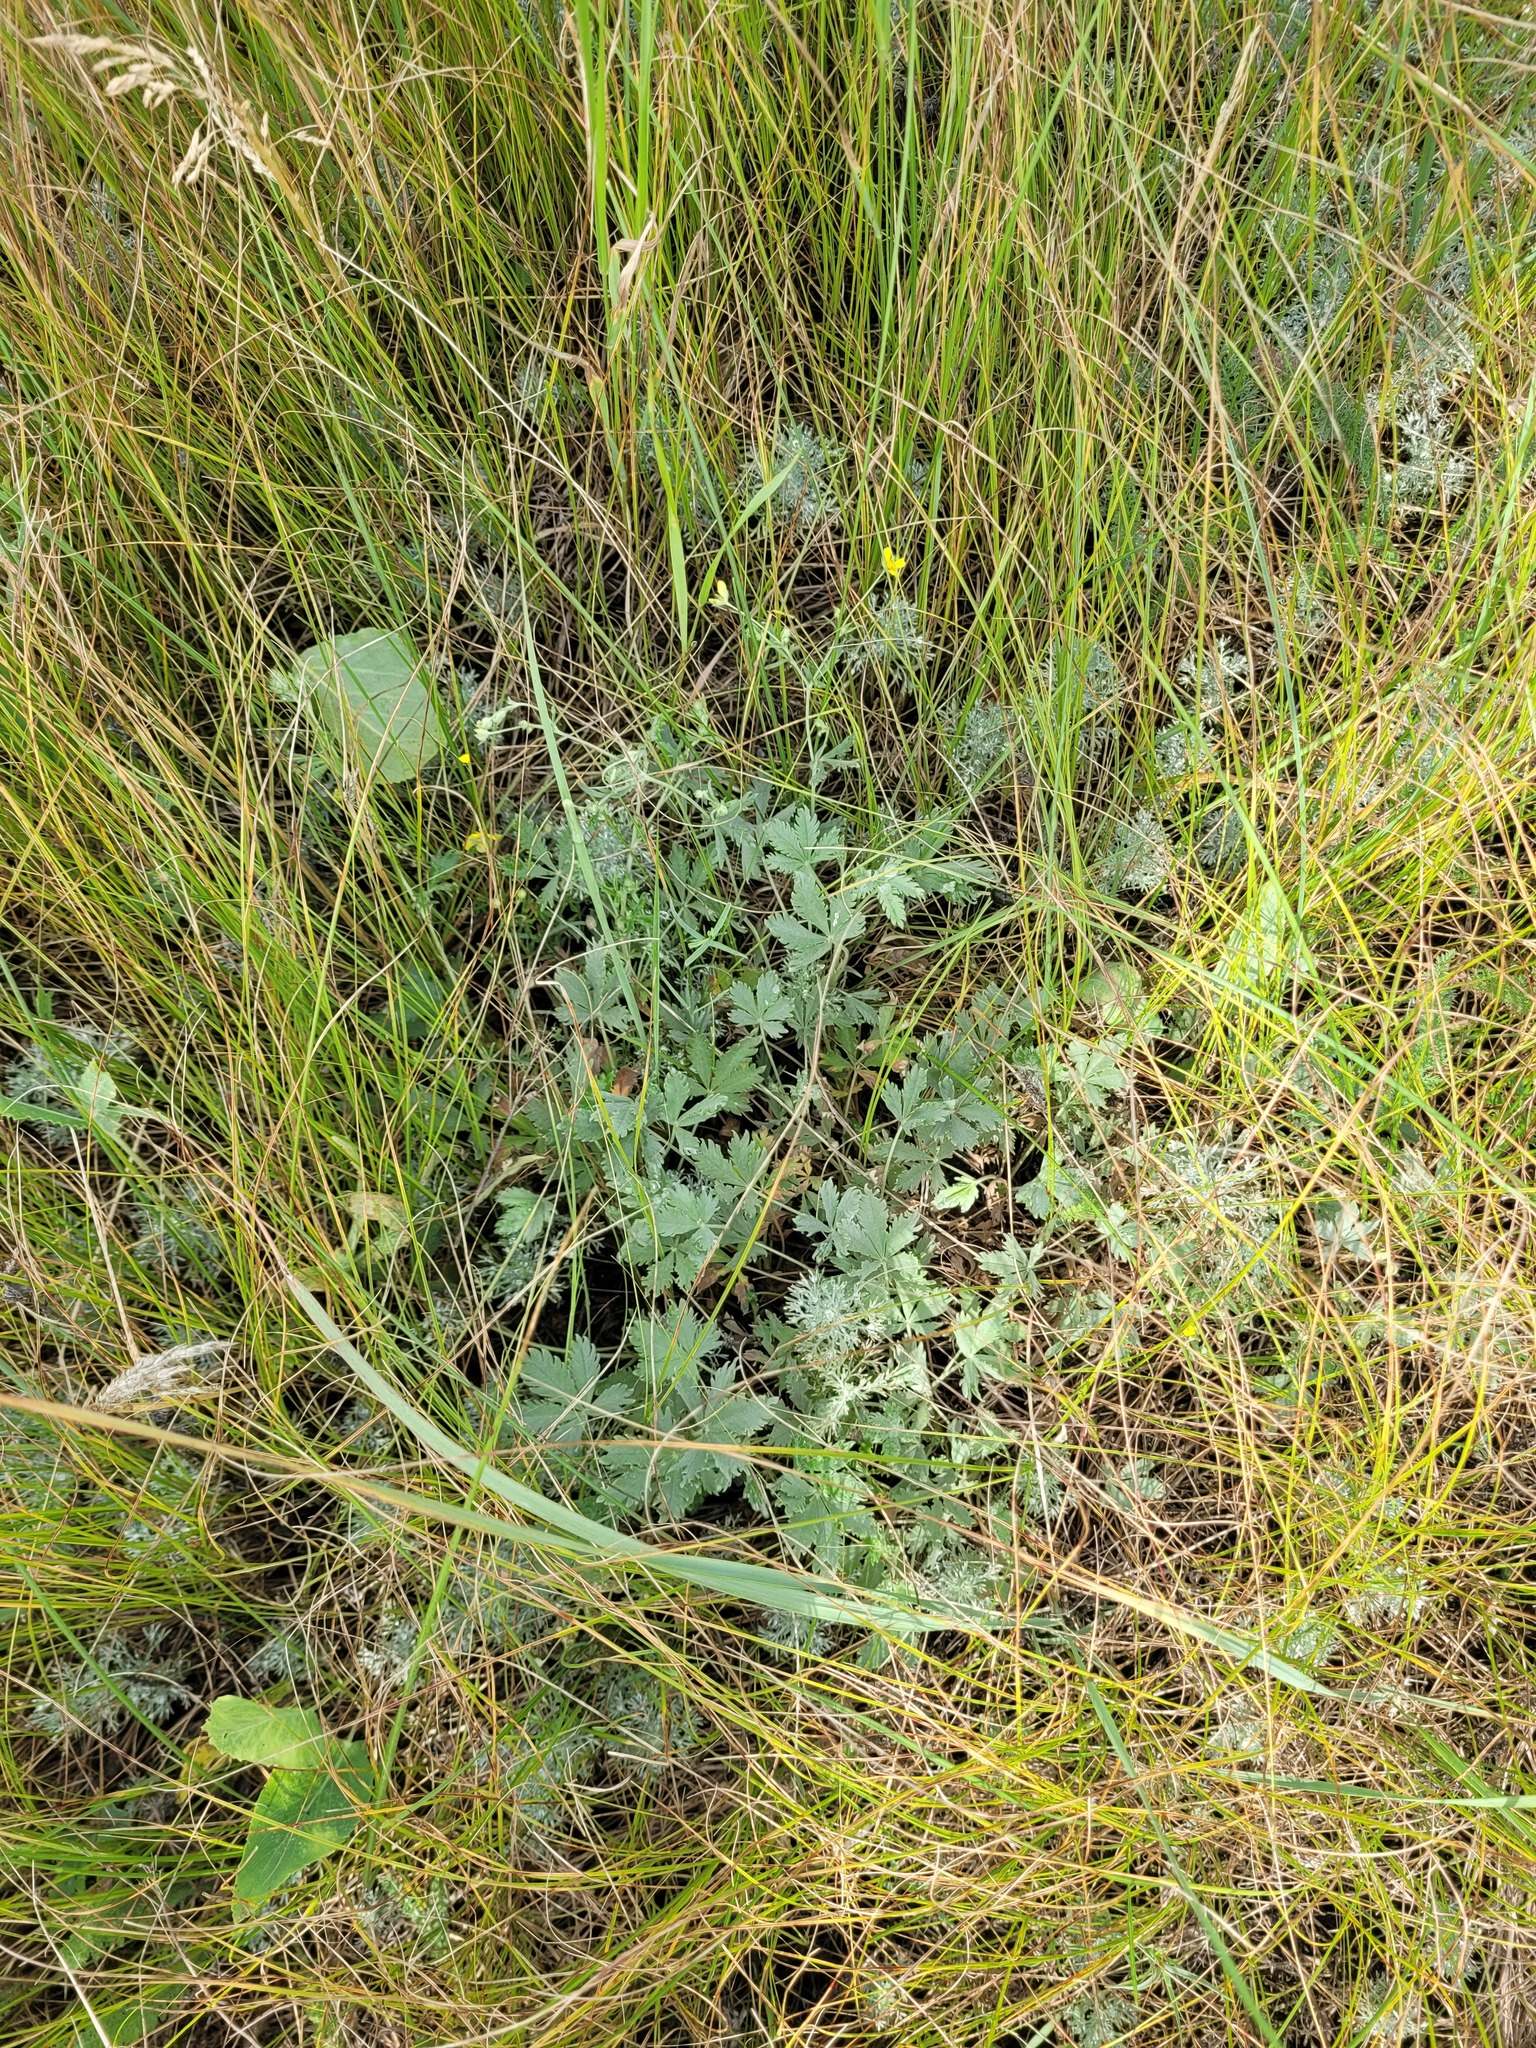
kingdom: Plantae
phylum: Tracheophyta
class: Magnoliopsida
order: Rosales
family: Rosaceae
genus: Potentilla
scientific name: Potentilla collina
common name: Palmleaf cinquefoil
